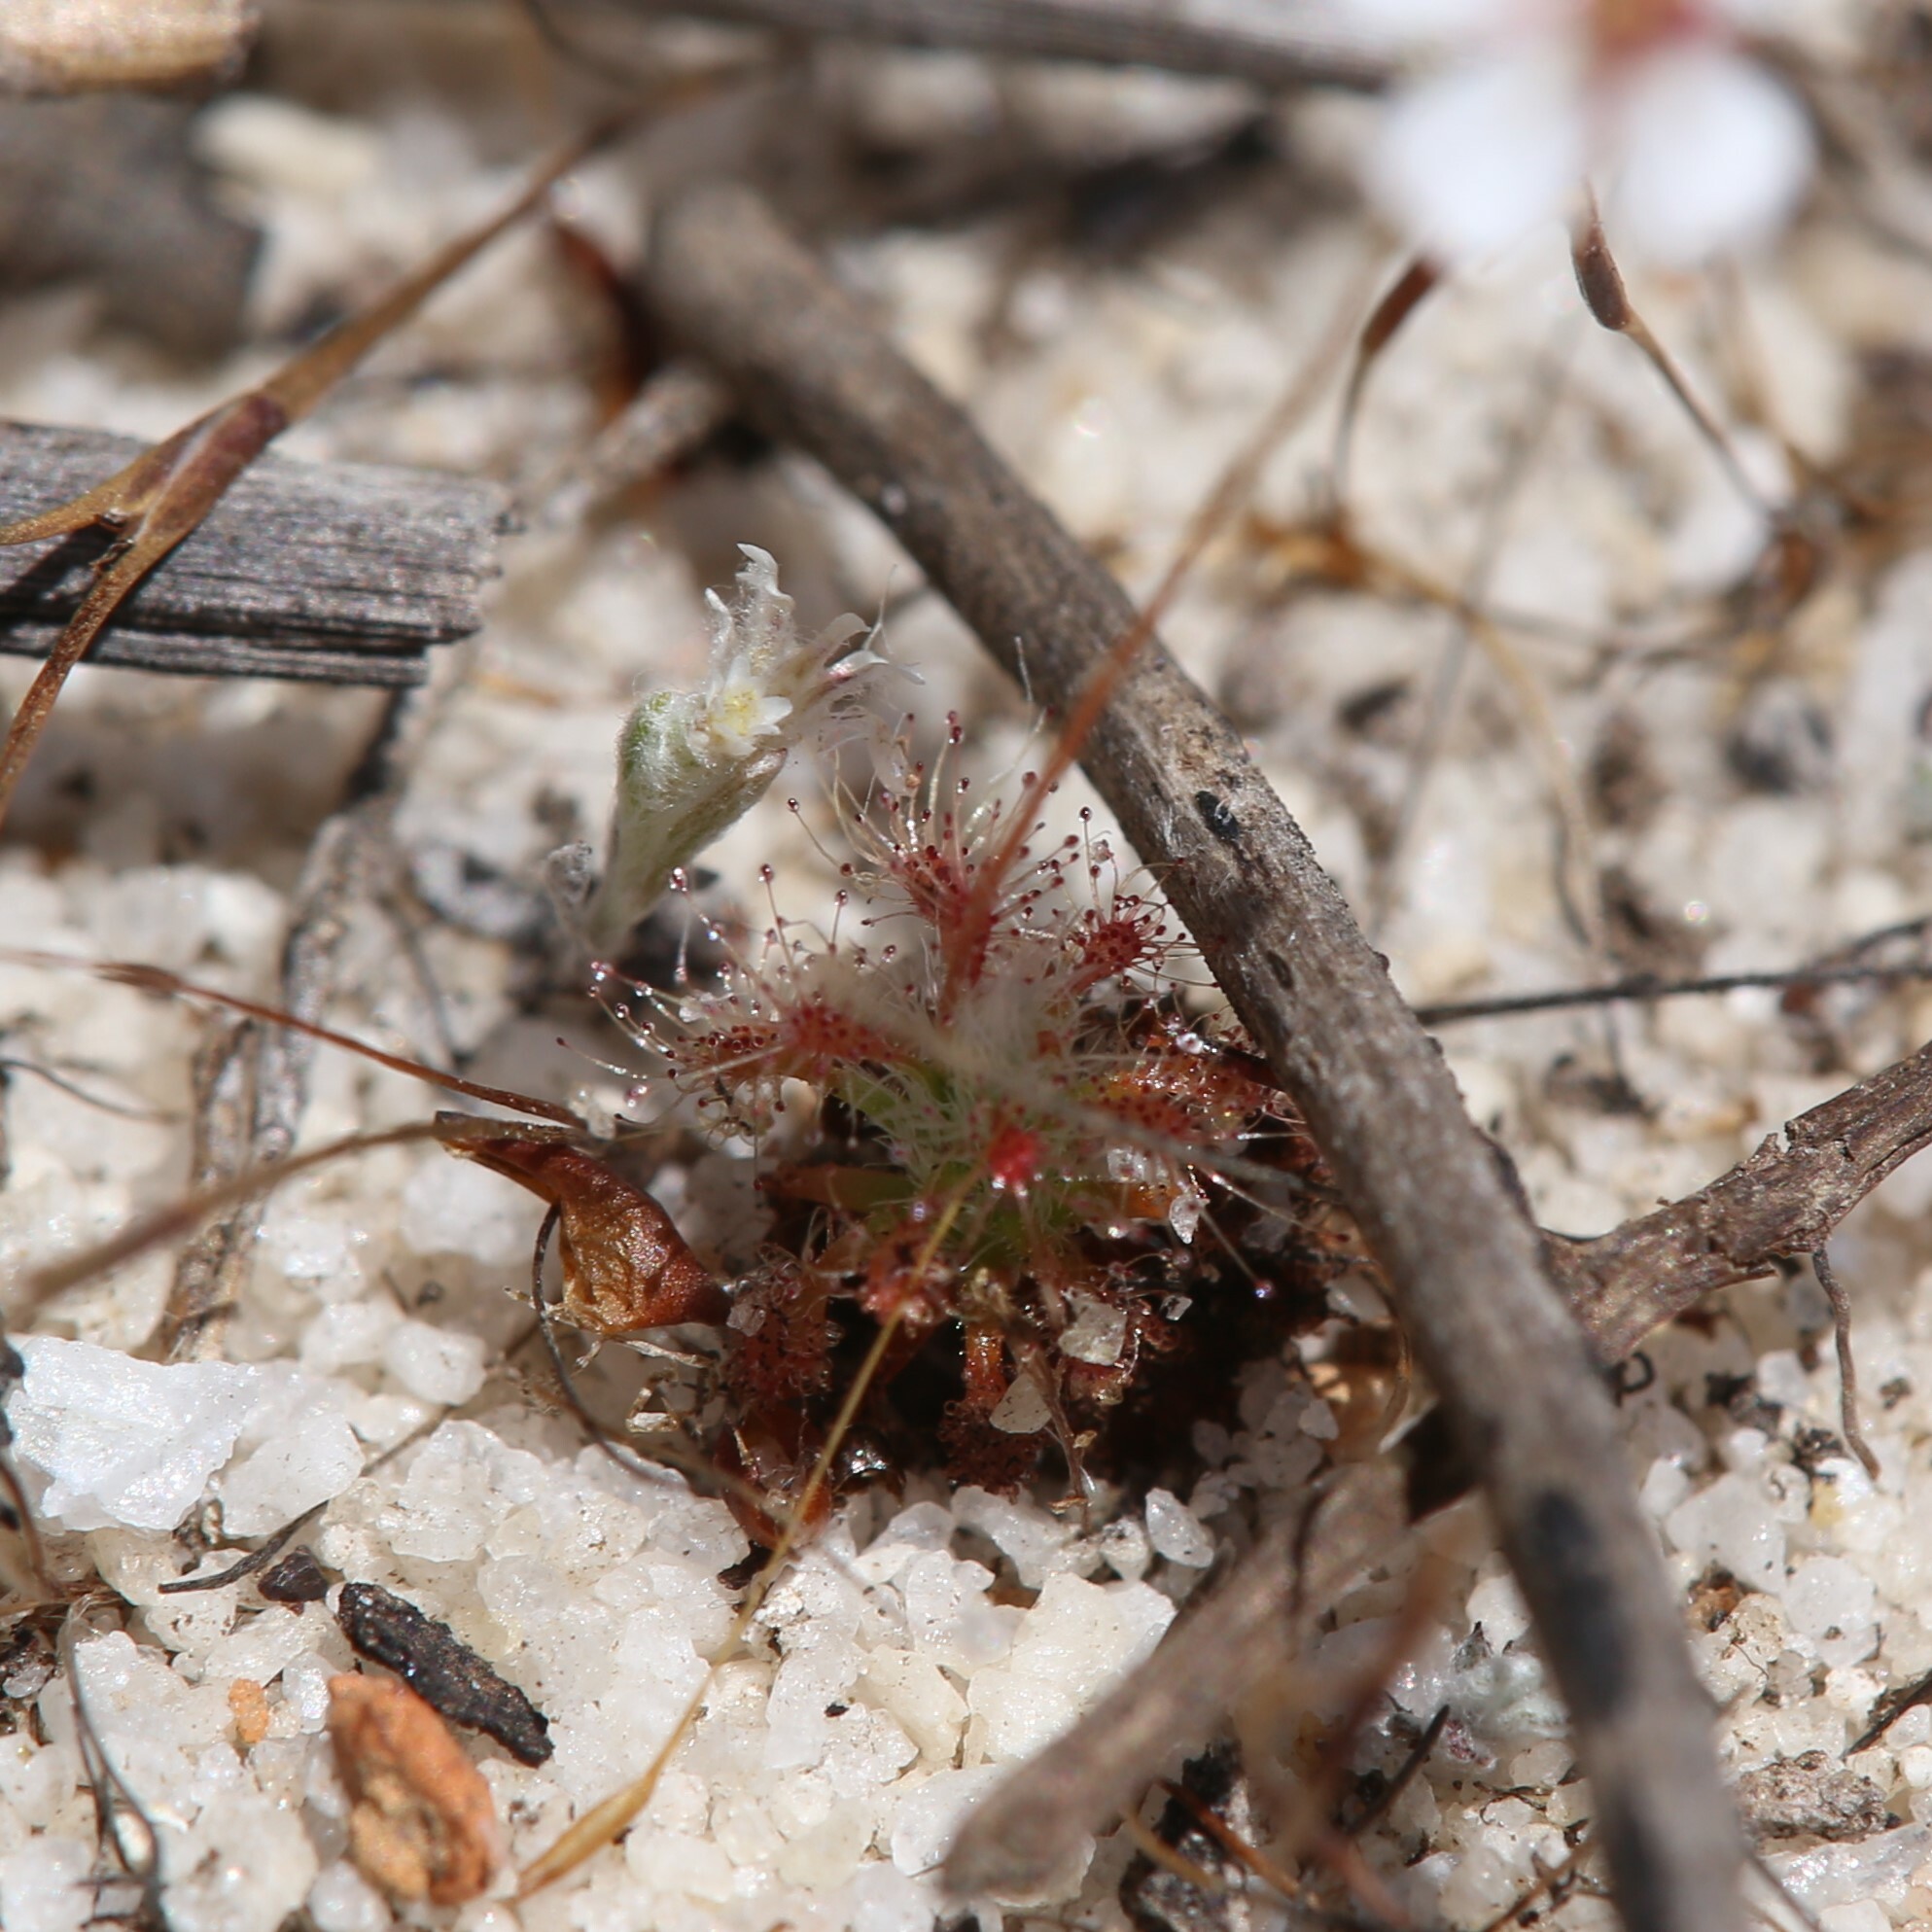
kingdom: Plantae
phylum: Tracheophyta
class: Magnoliopsida
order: Caryophyllales
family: Droseraceae
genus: Drosera
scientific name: Drosera patens
